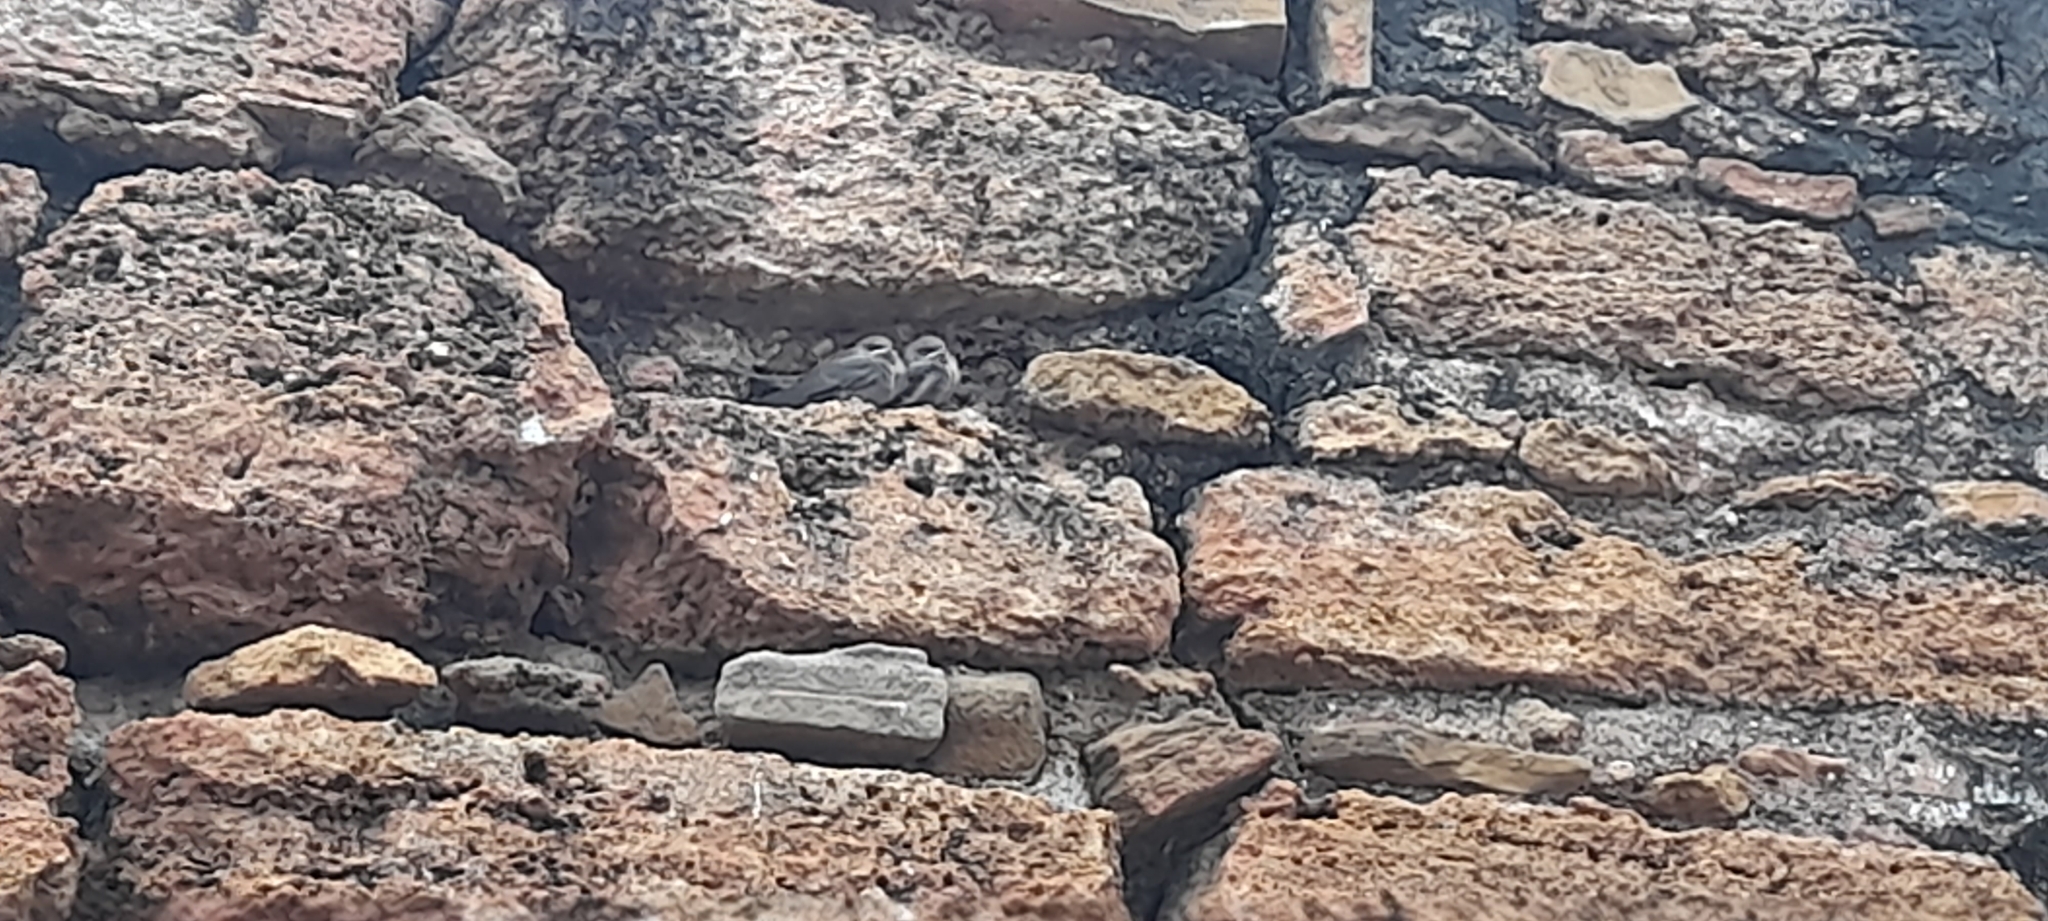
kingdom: Animalia
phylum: Chordata
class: Aves
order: Passeriformes
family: Hirundinidae
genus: Ptyonoprogne
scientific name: Ptyonoprogne concolor
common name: Dusky crag-martin
